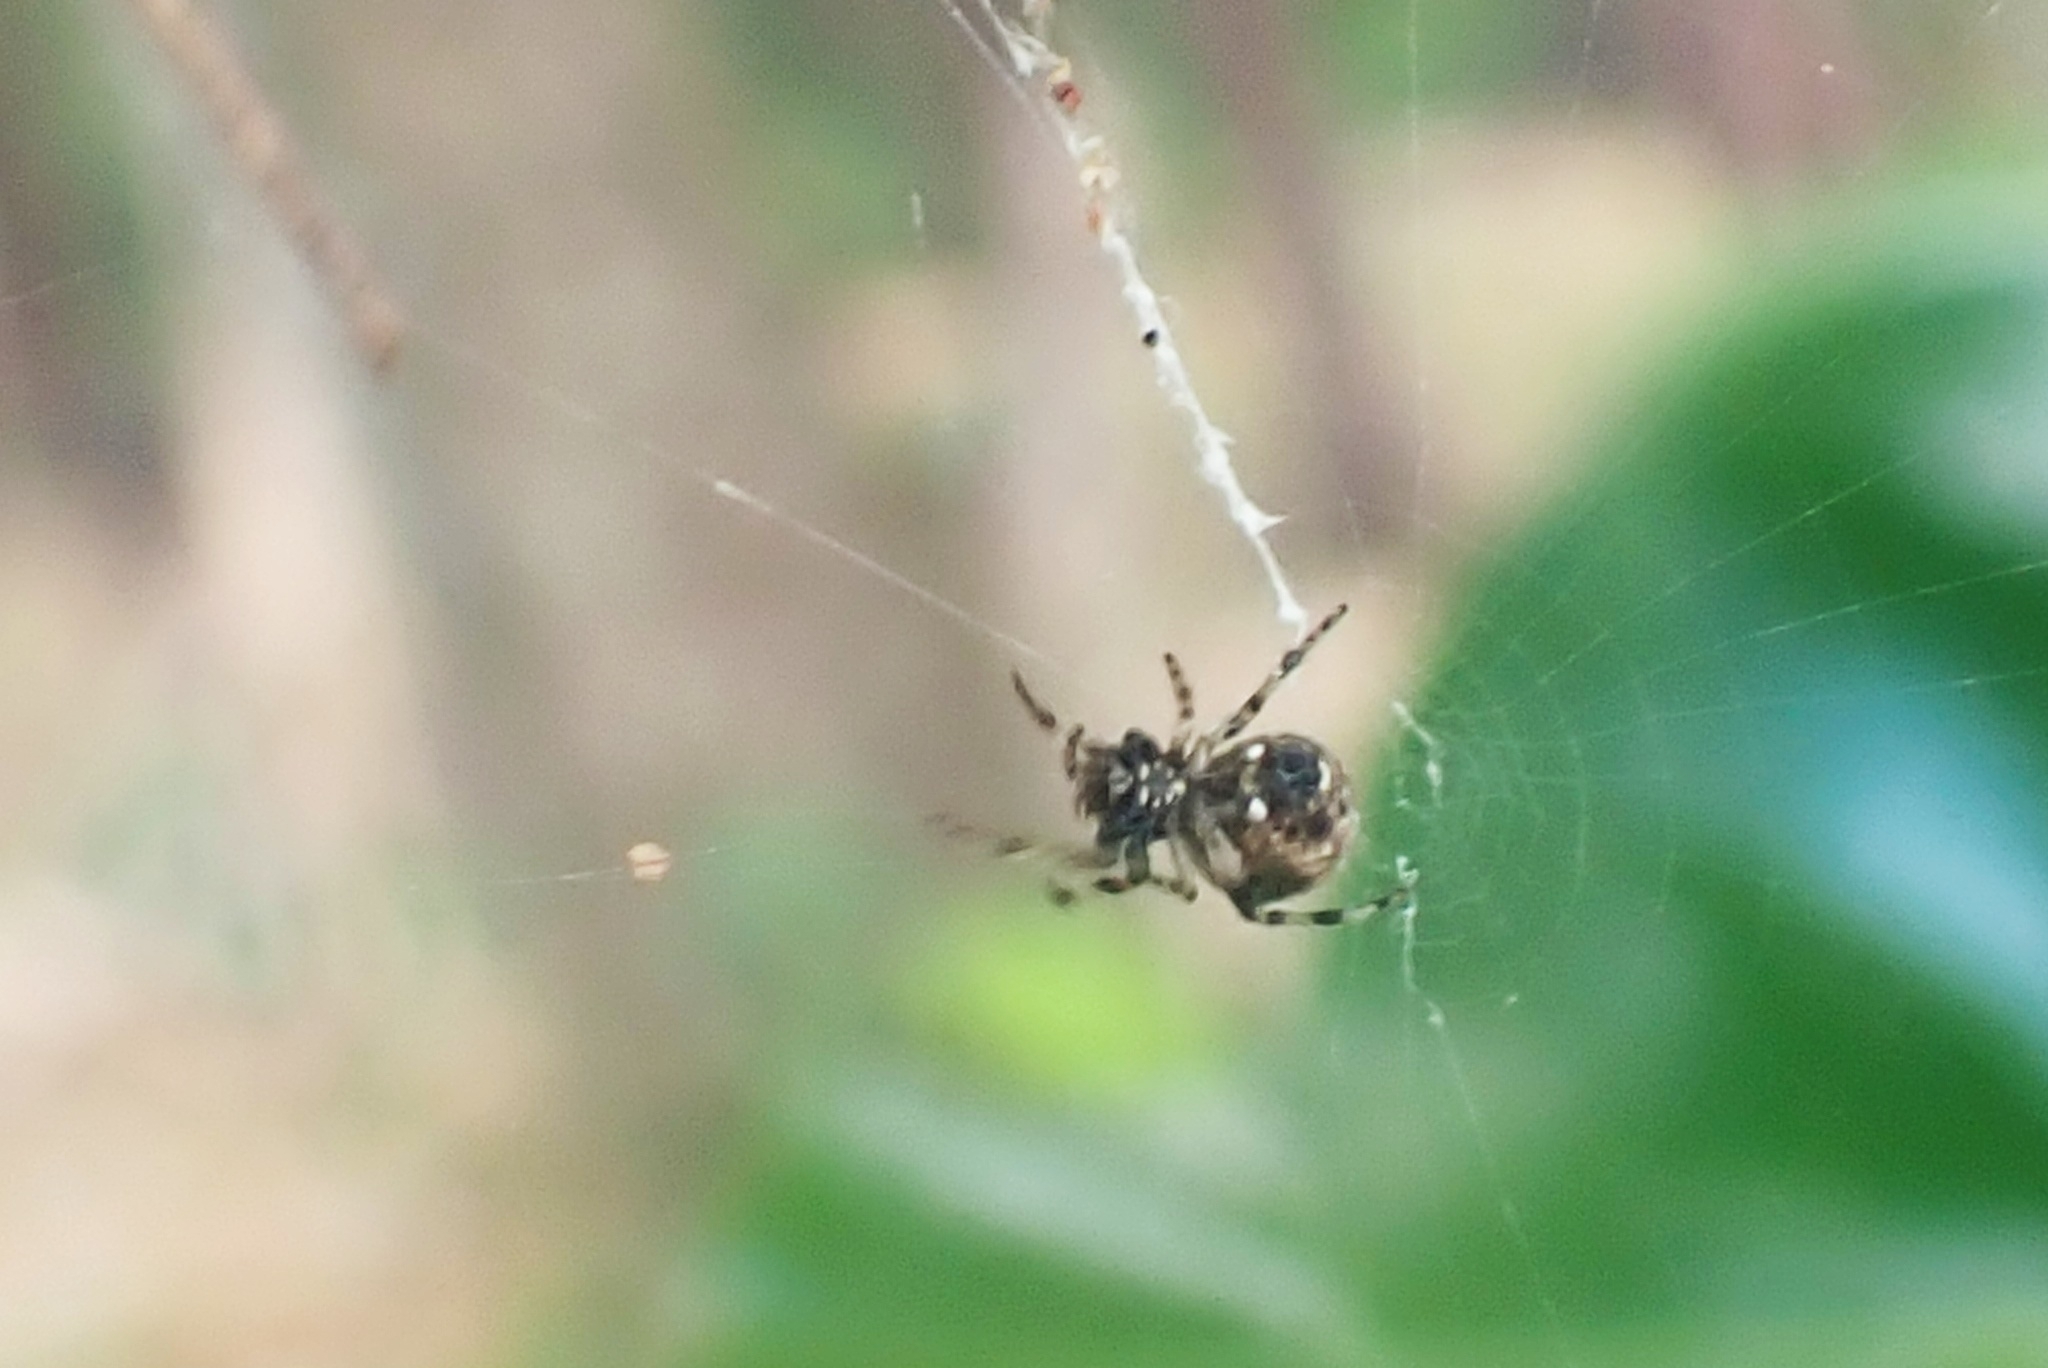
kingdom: Animalia
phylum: Arthropoda
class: Arachnida
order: Araneae
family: Araneidae
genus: Cyclosa
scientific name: Cyclosa mulmeinensis
